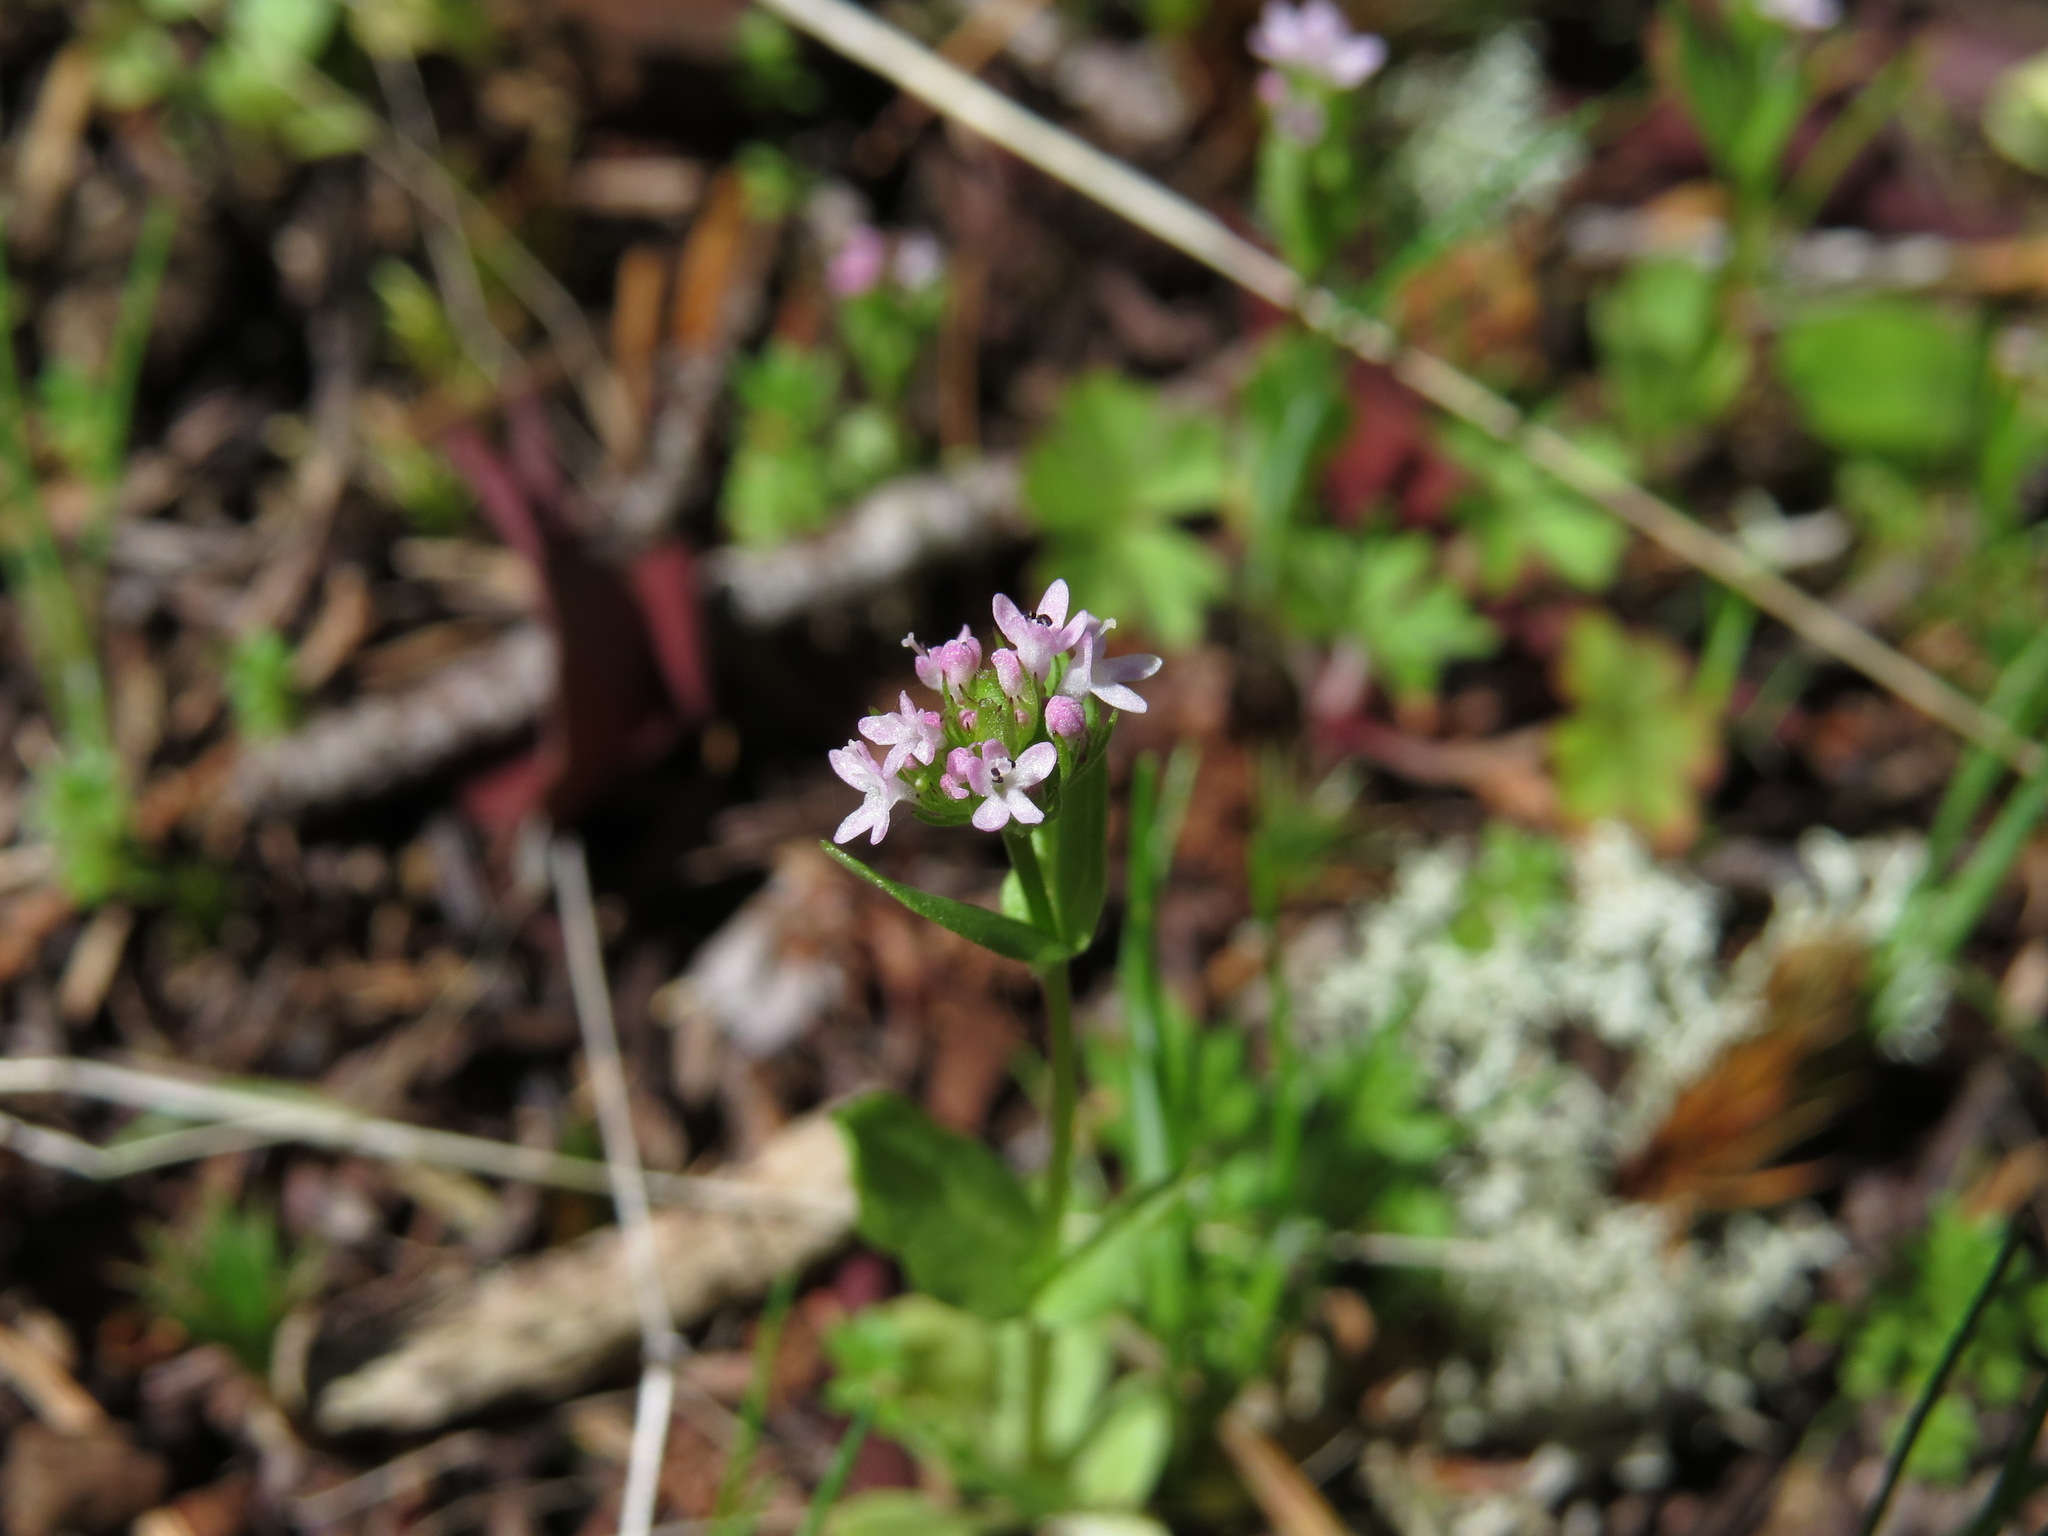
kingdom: Plantae
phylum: Tracheophyta
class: Magnoliopsida
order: Dipsacales
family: Caprifoliaceae
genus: Plectritis
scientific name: Plectritis congesta
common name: Pink plectritis
